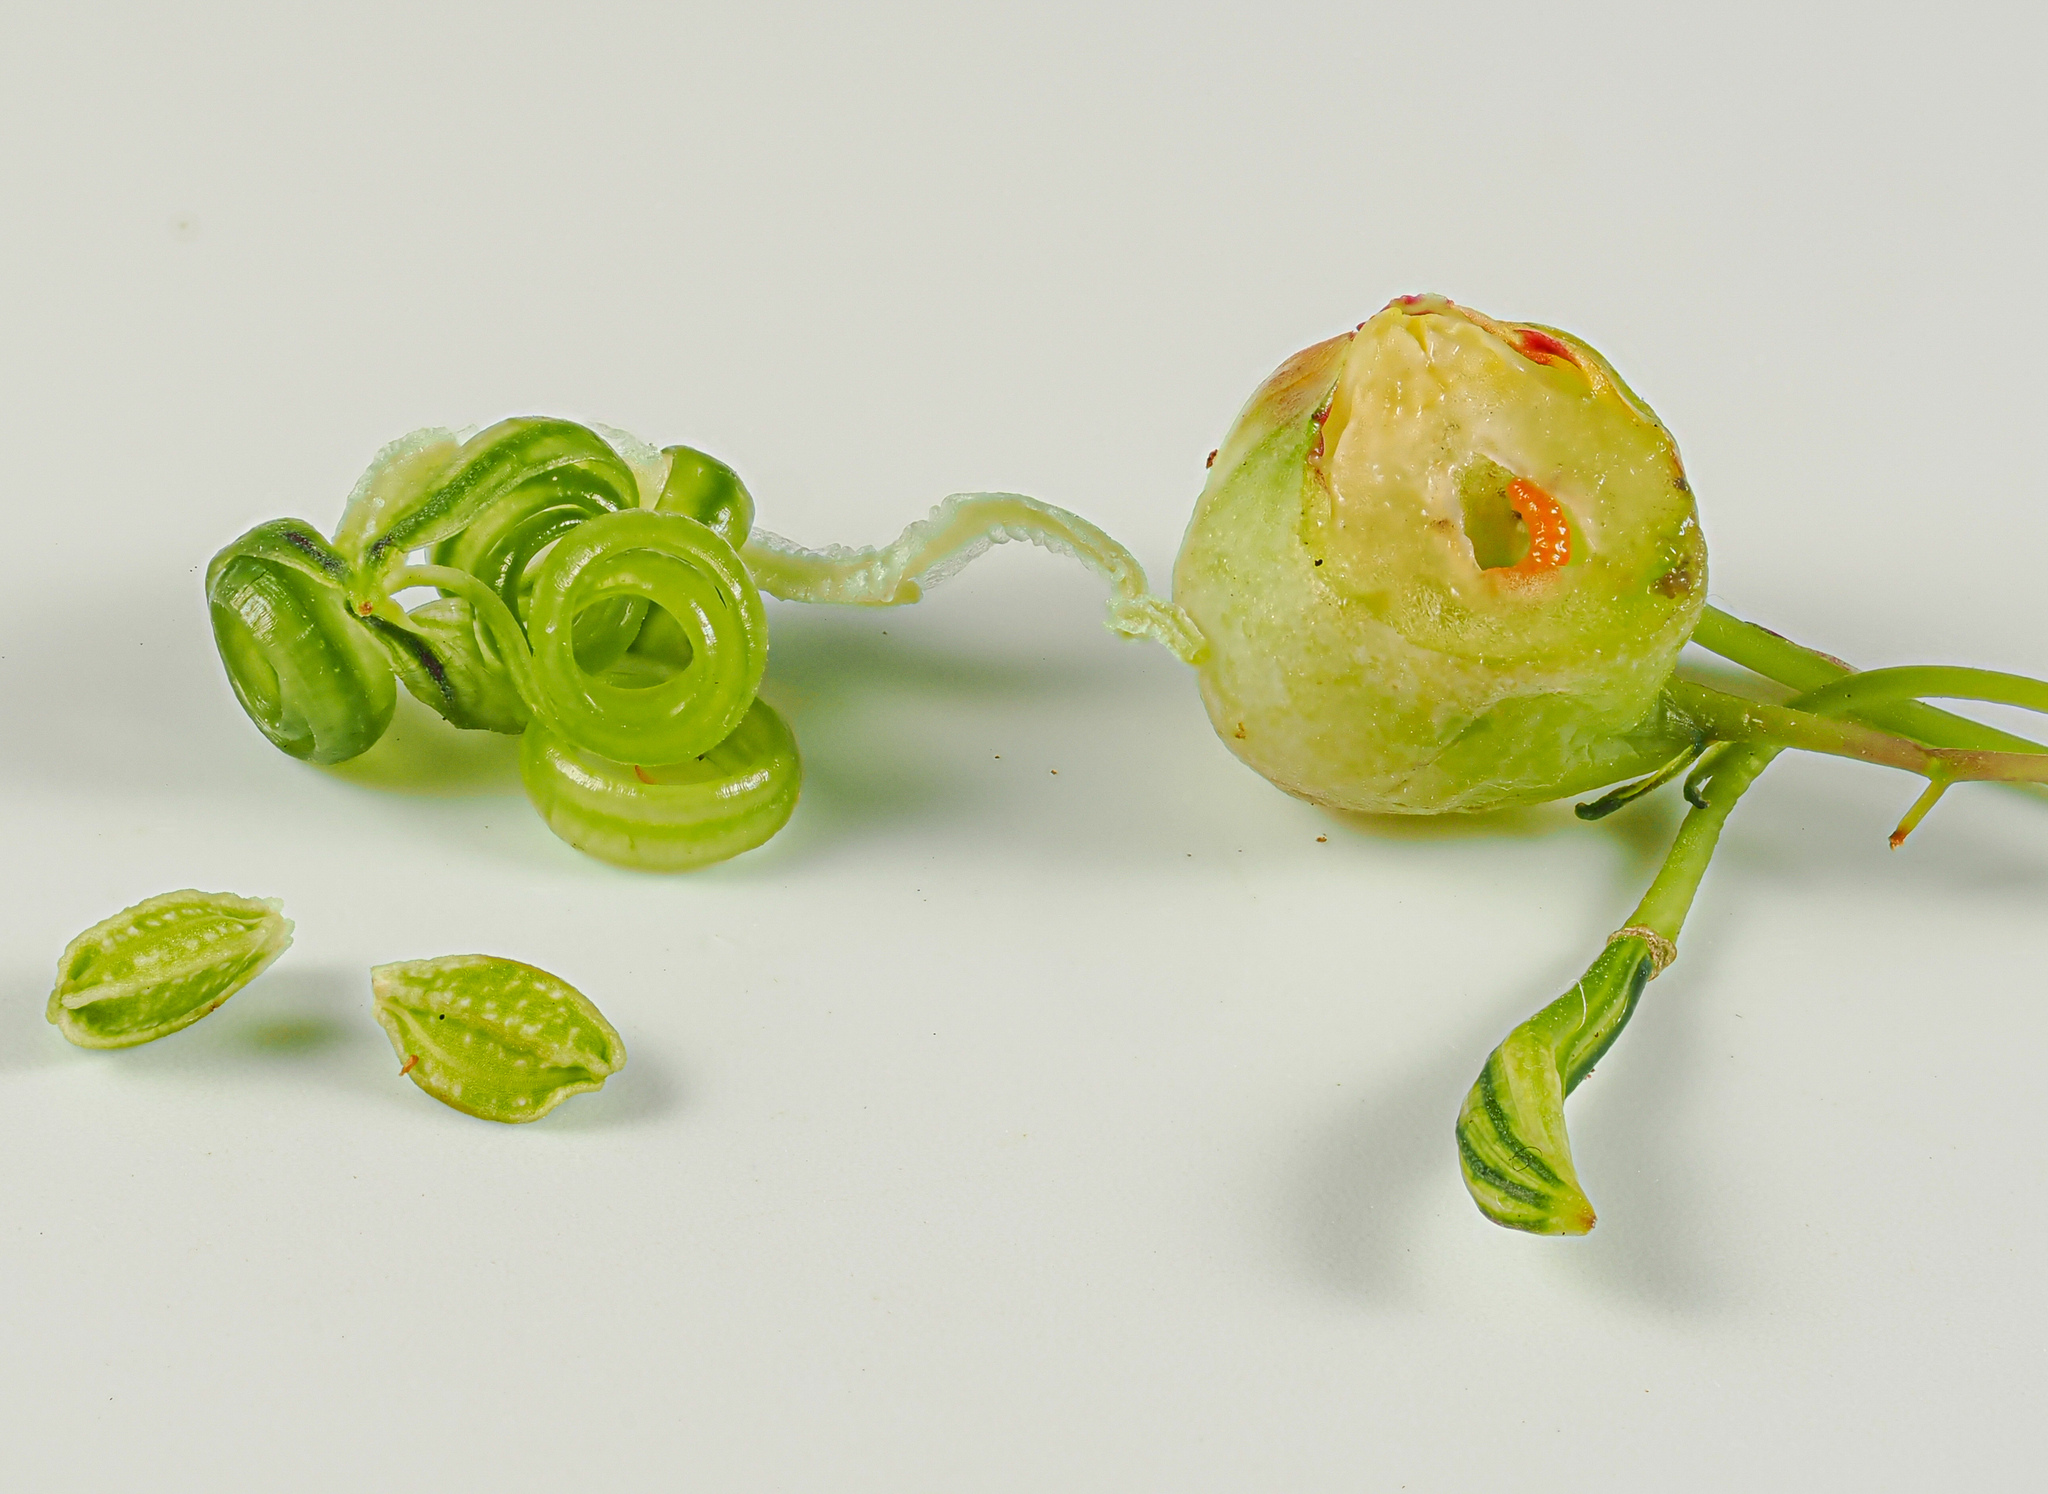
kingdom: Animalia
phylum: Arthropoda
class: Insecta
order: Diptera
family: Cecidomyiidae
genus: Schizomyia
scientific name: Schizomyia impatientis
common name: Jewelweed gall midge
